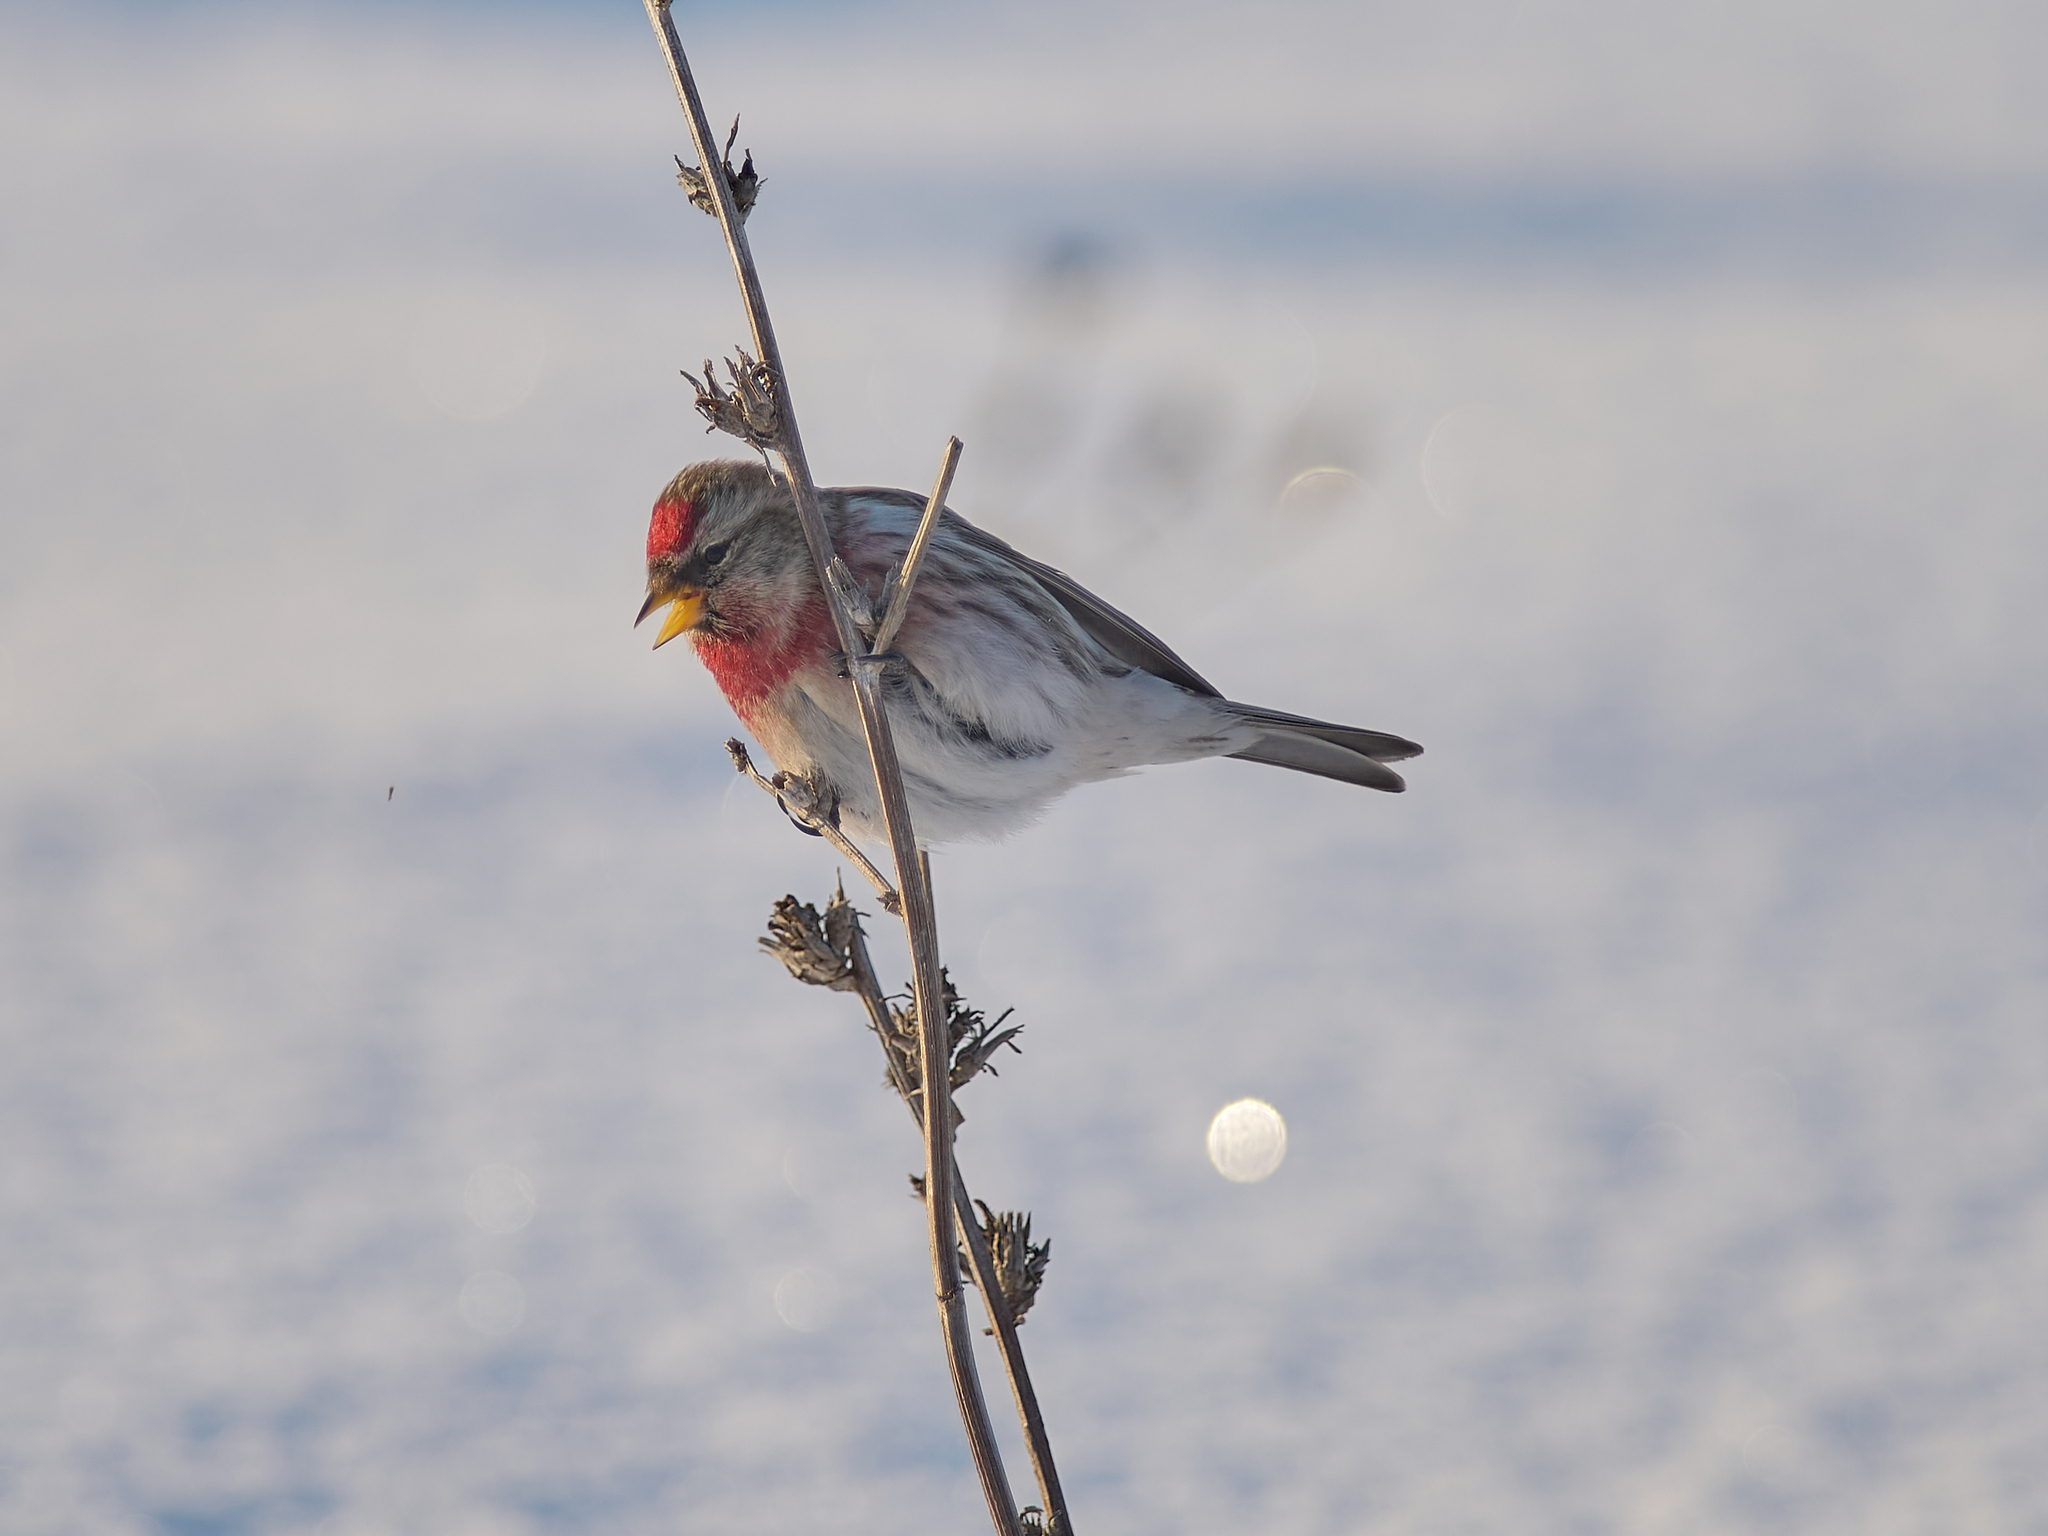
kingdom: Animalia
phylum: Chordata
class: Aves
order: Passeriformes
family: Fringillidae
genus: Acanthis
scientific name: Acanthis flammea
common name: Common redpoll
